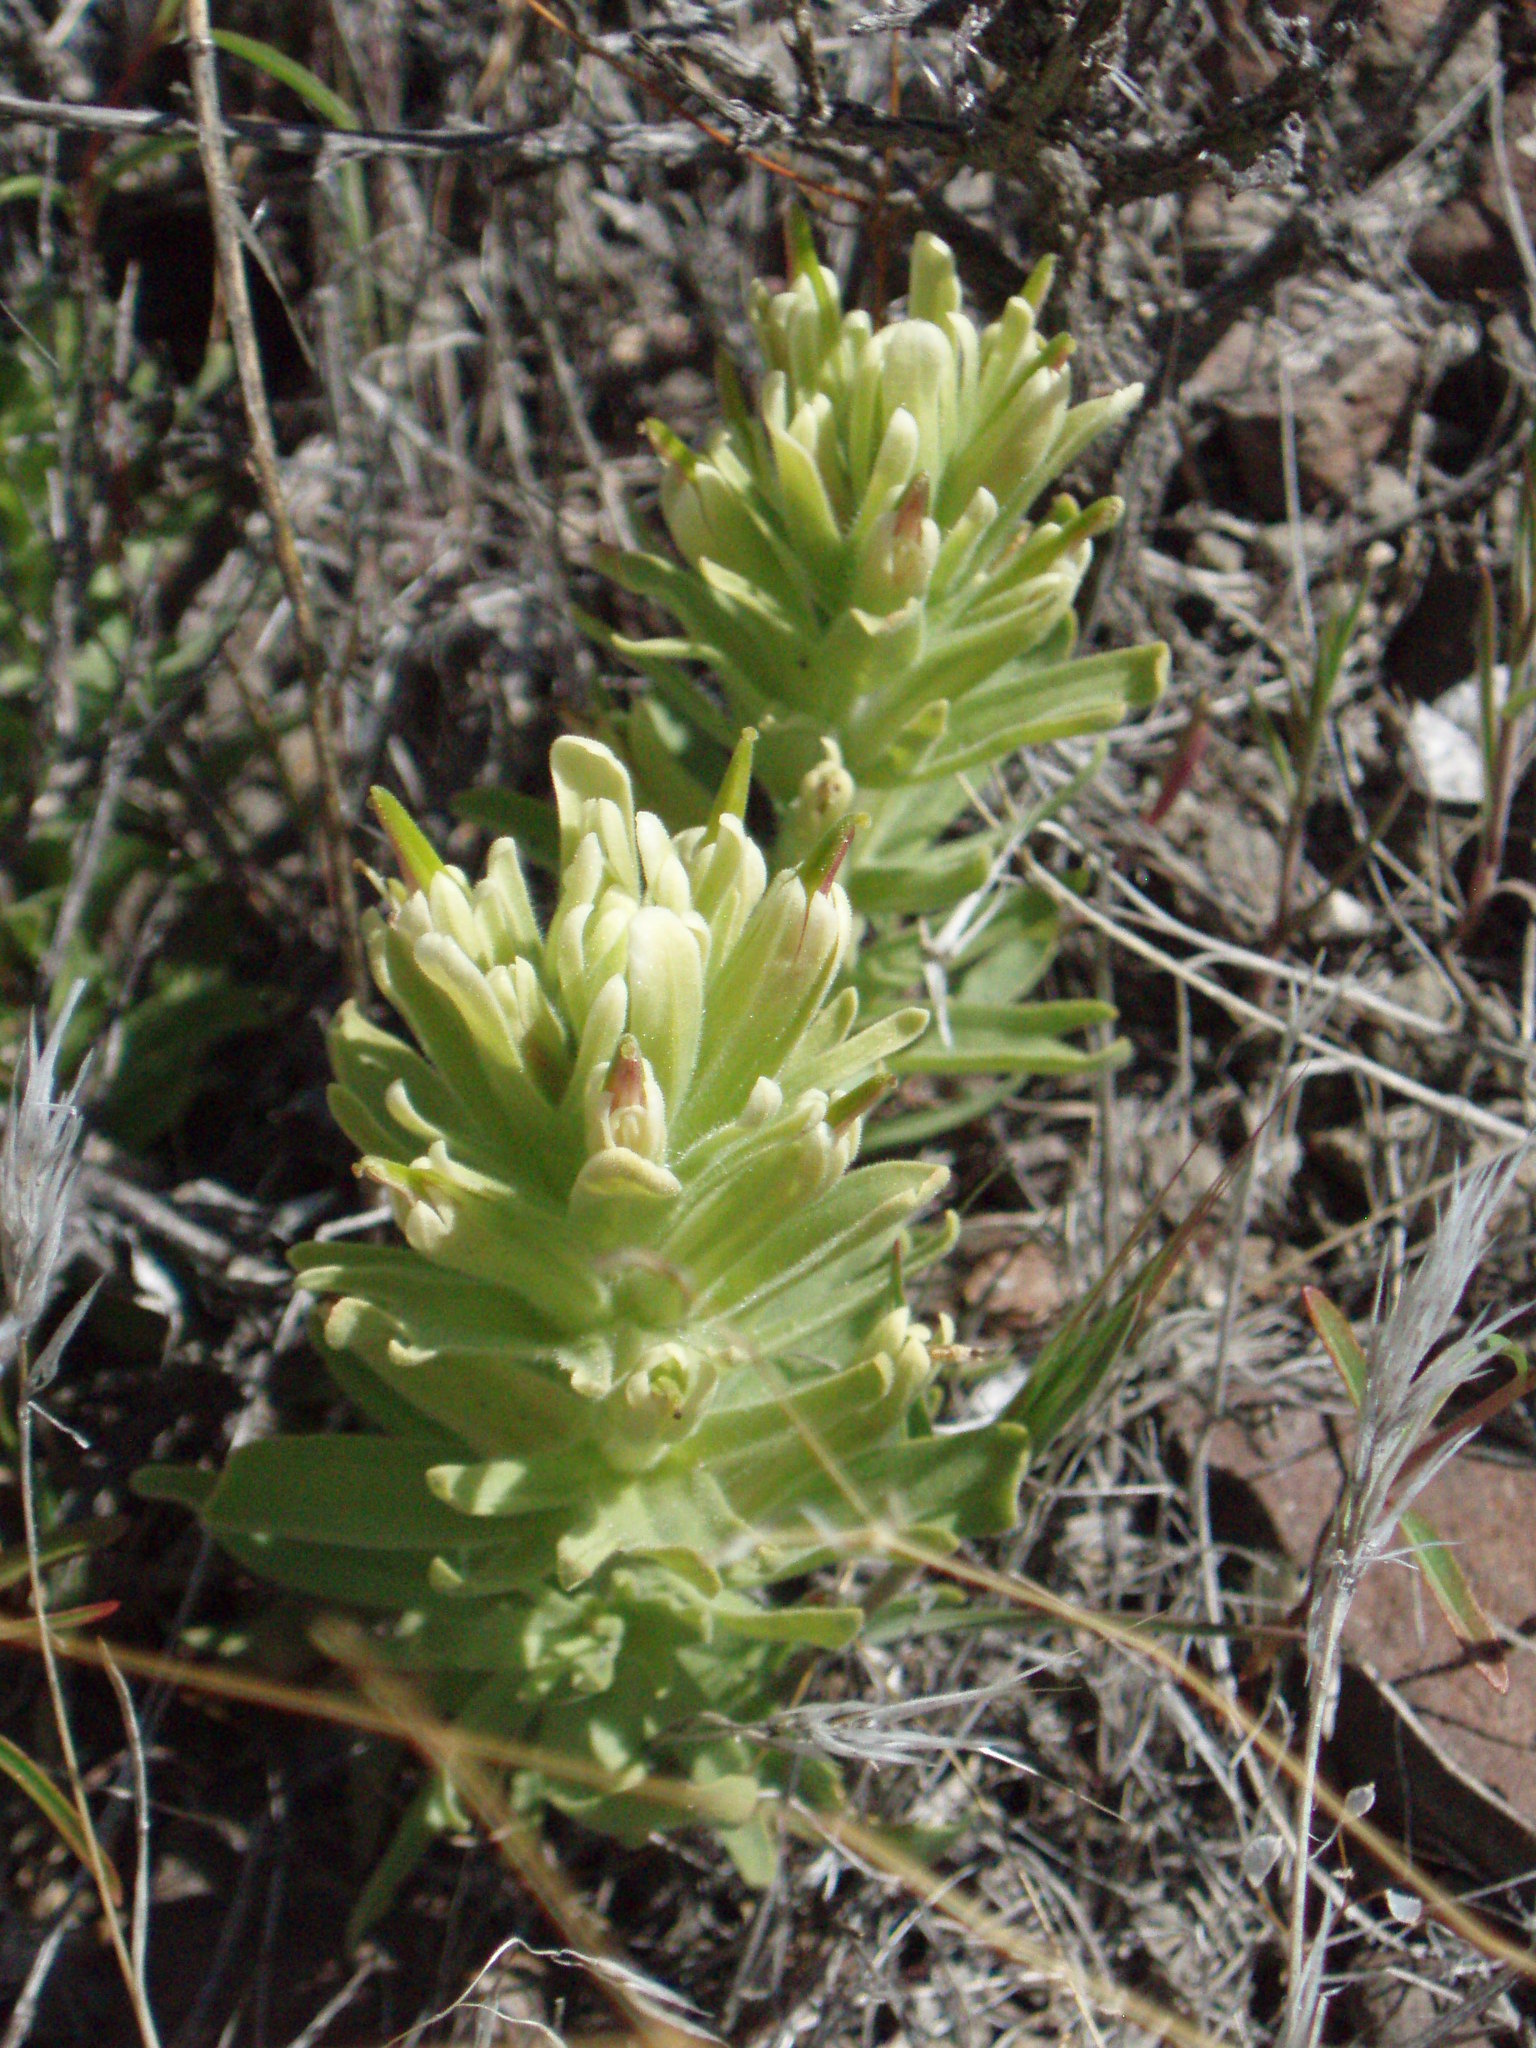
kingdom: Plantae
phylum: Tracheophyta
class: Magnoliopsida
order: Lamiales
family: Orobanchaceae
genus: Castilleja
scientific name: Castilleja xanthotricha
